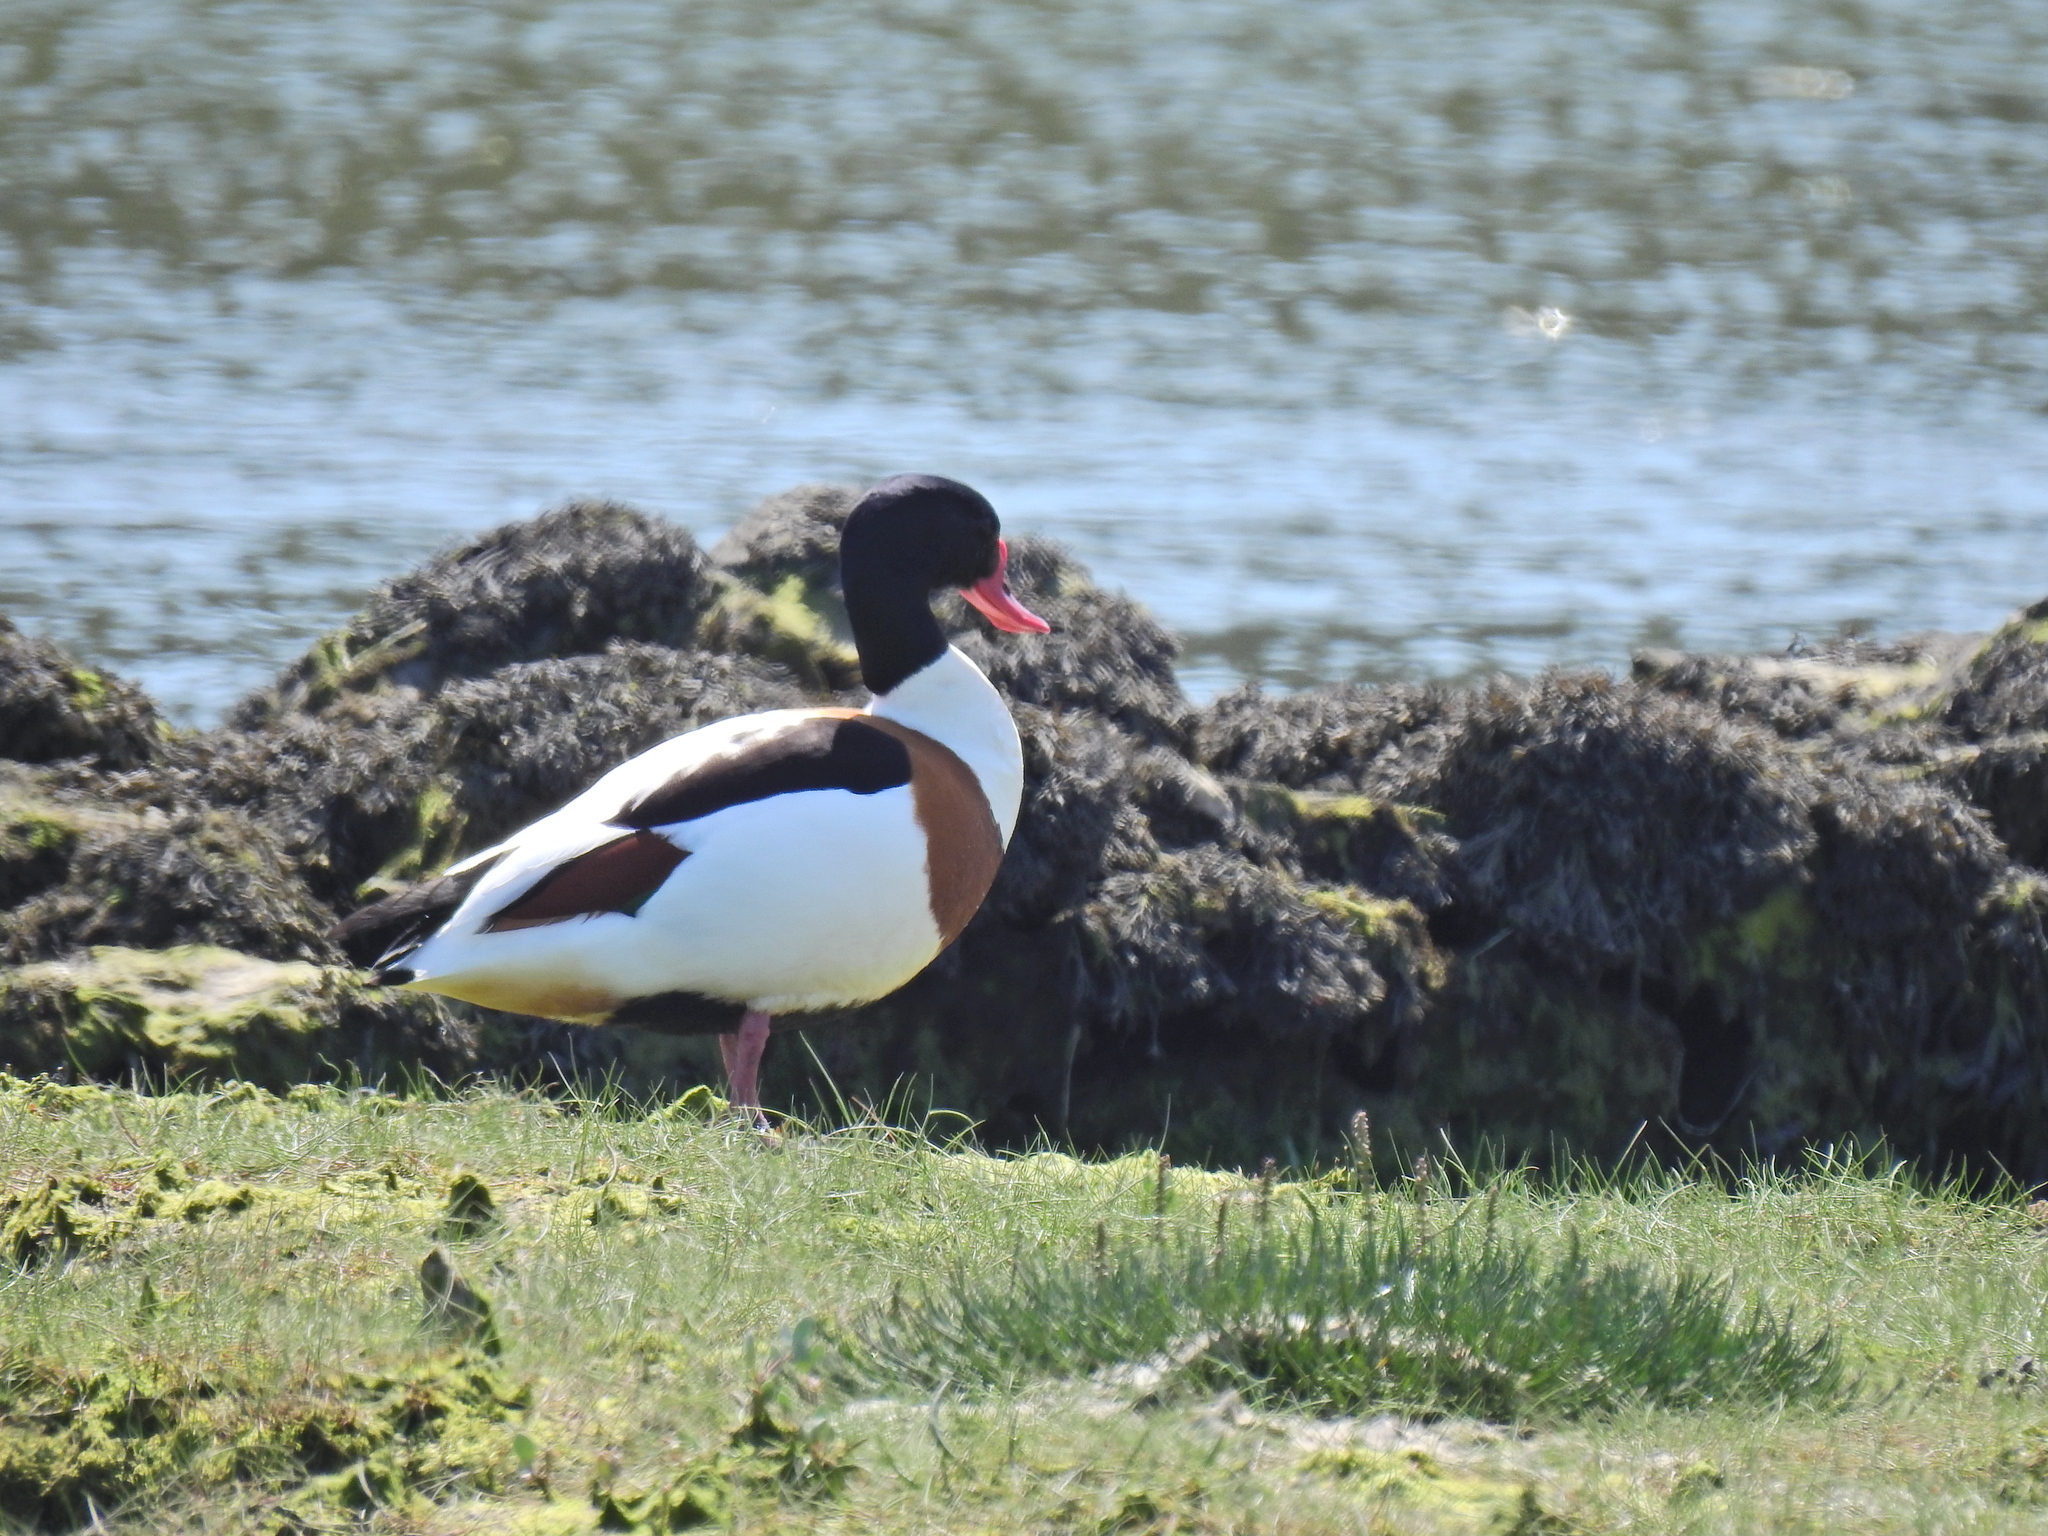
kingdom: Animalia
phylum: Chordata
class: Aves
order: Anseriformes
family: Anatidae
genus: Tadorna
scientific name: Tadorna tadorna
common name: Common shelduck
